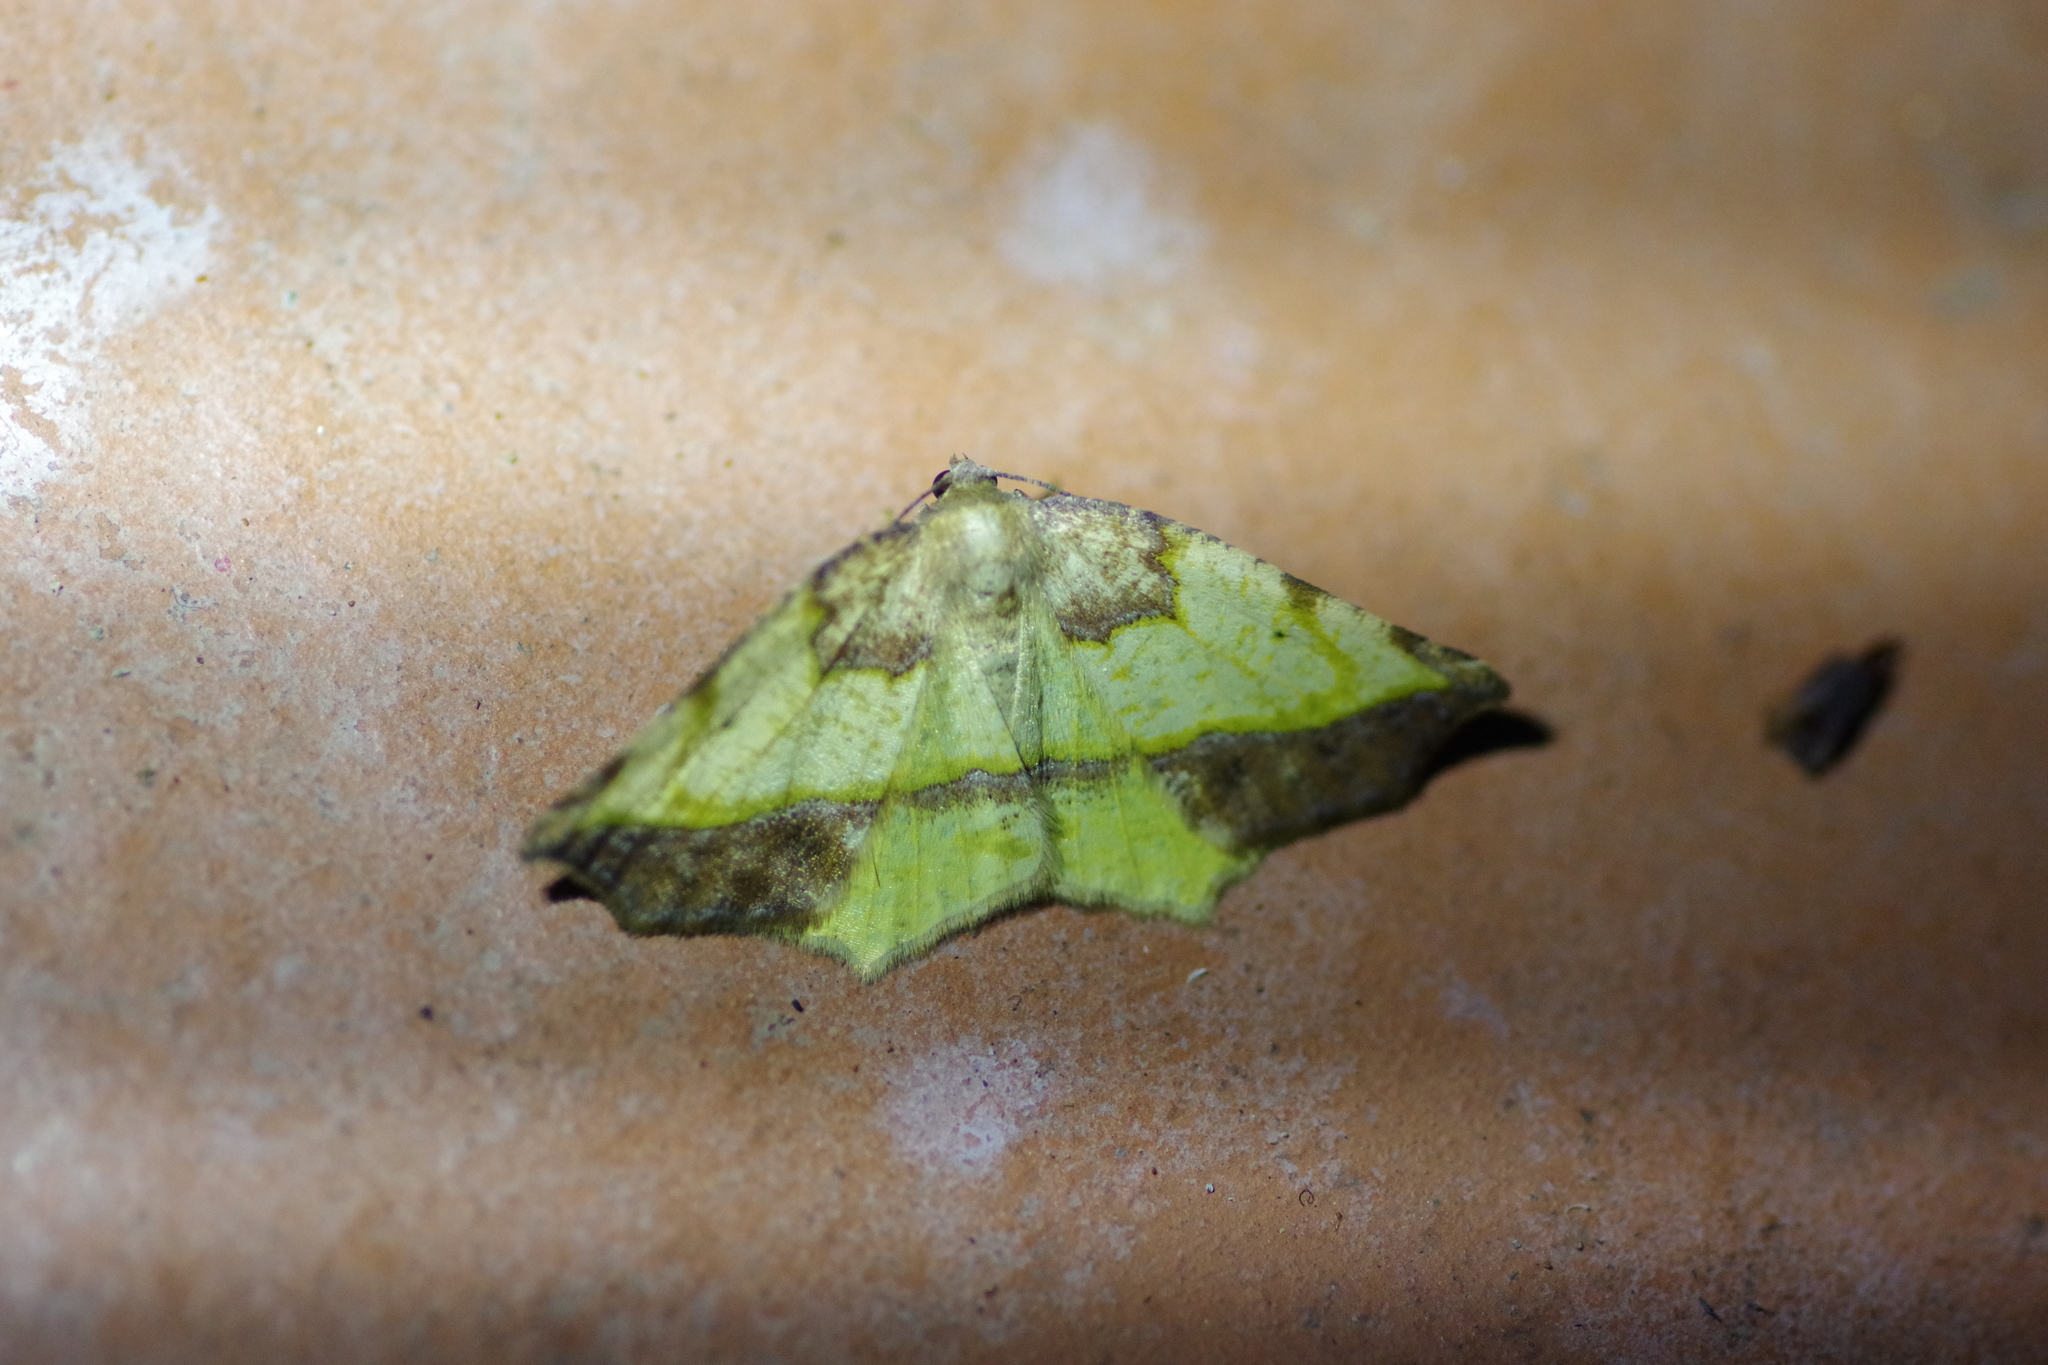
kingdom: Animalia
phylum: Arthropoda
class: Insecta
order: Lepidoptera
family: Geometridae
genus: Eusarca
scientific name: Eusarca fundaria
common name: Dark-edged eusarca moth
